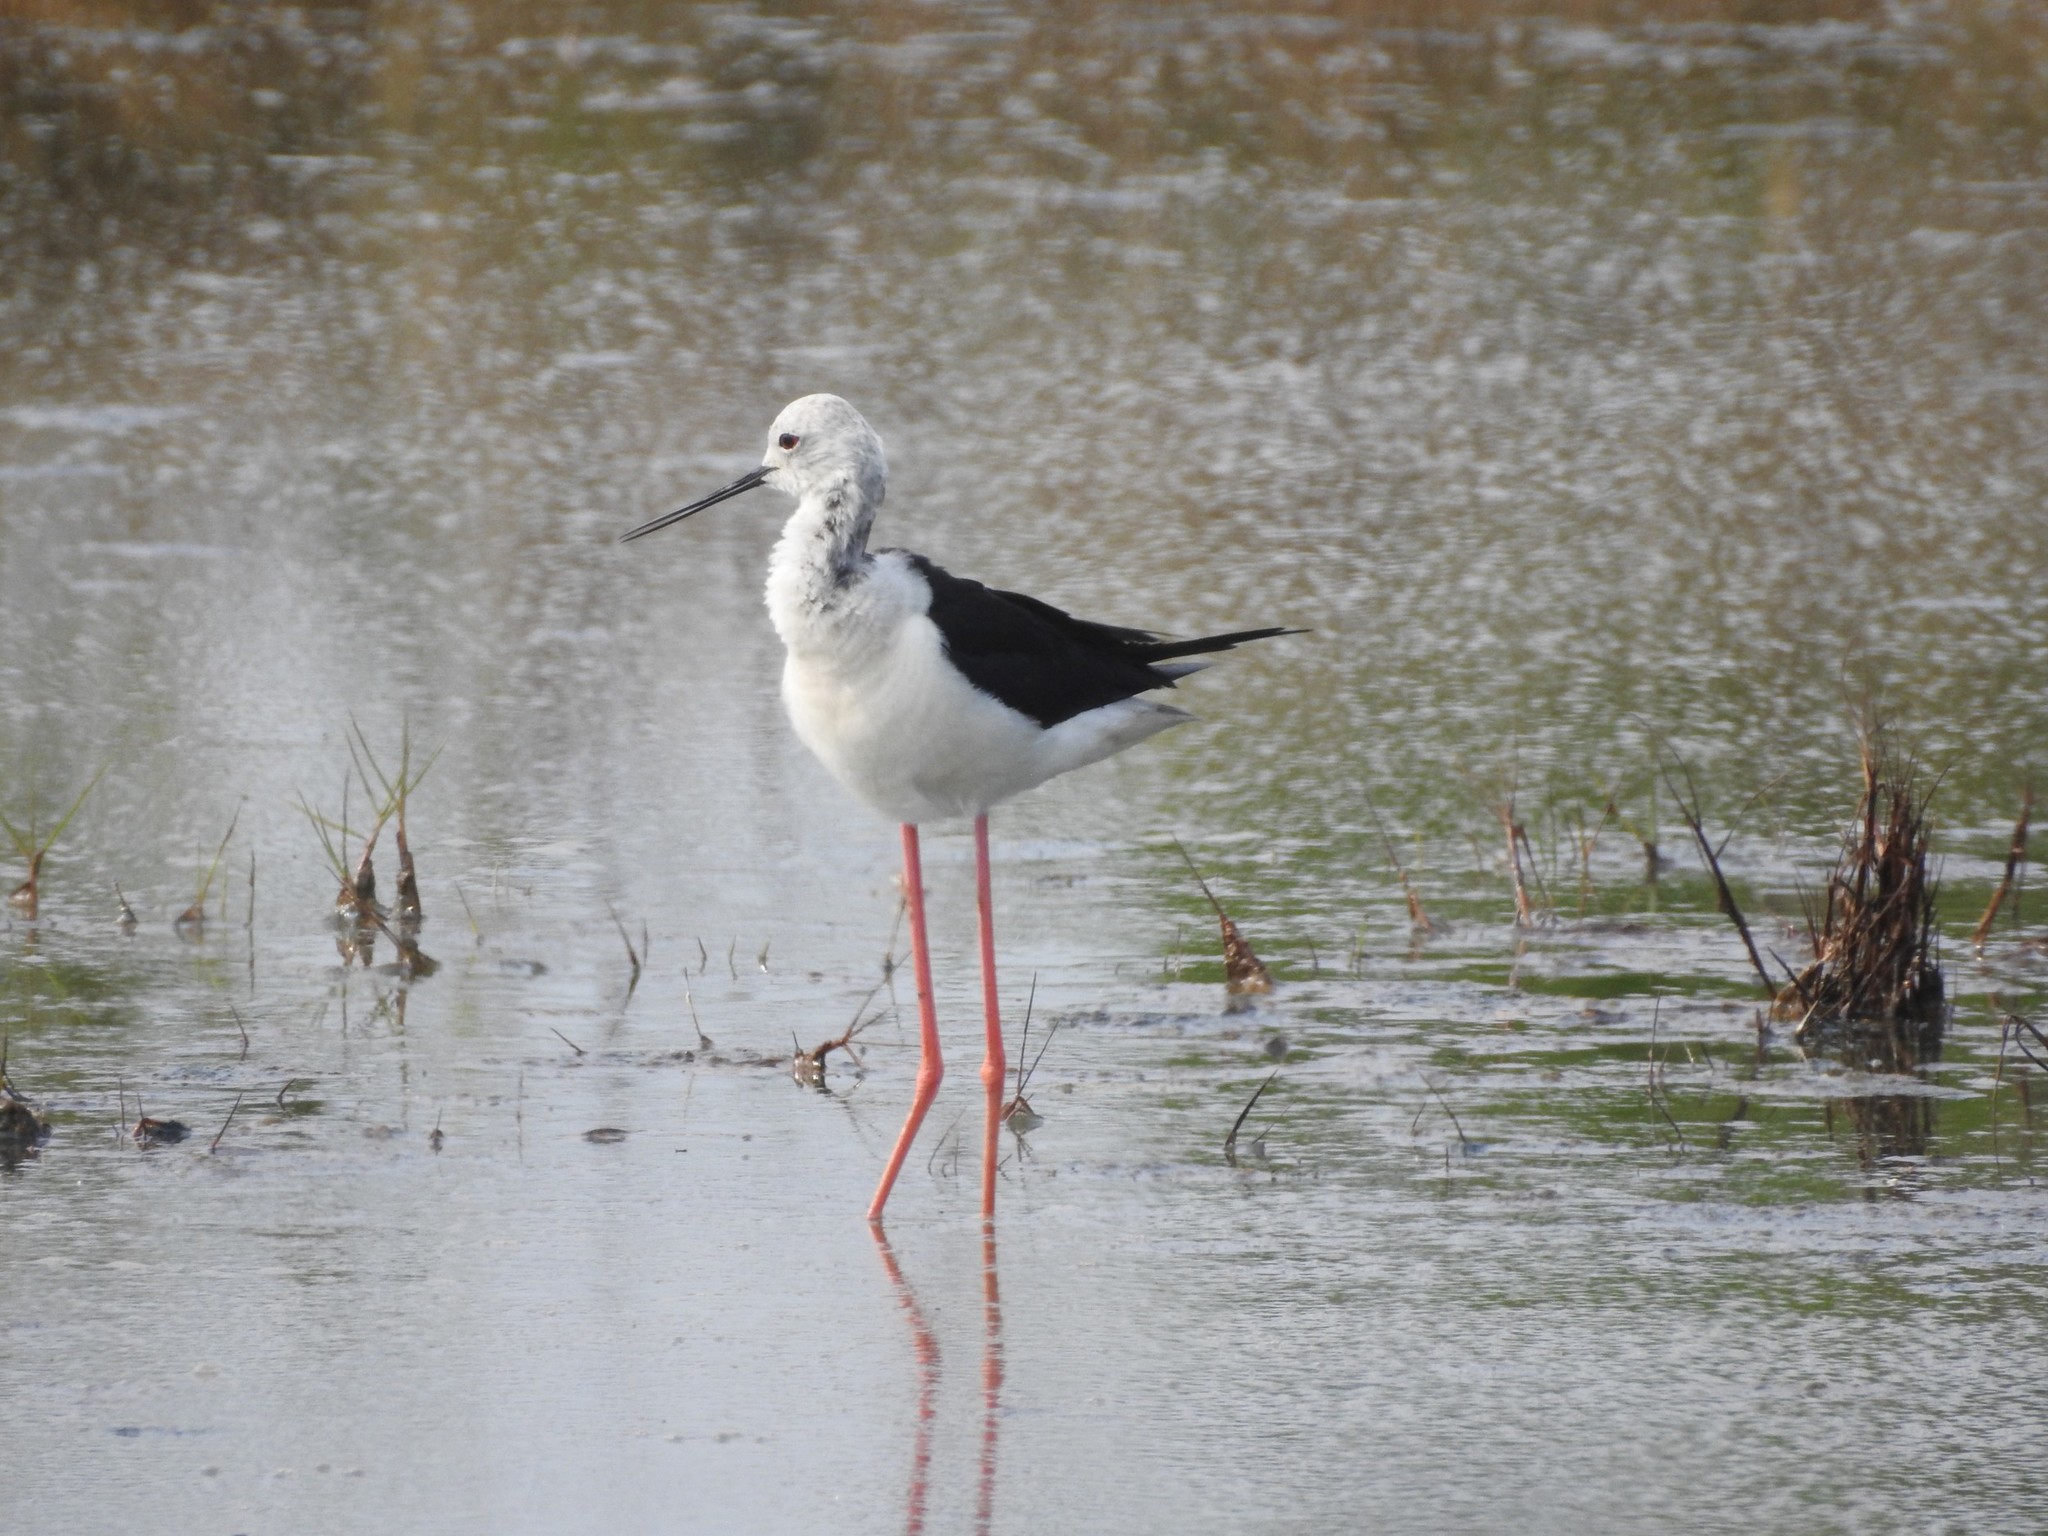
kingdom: Animalia
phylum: Chordata
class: Aves
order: Charadriiformes
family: Recurvirostridae
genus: Himantopus
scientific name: Himantopus himantopus
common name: Black-winged stilt
